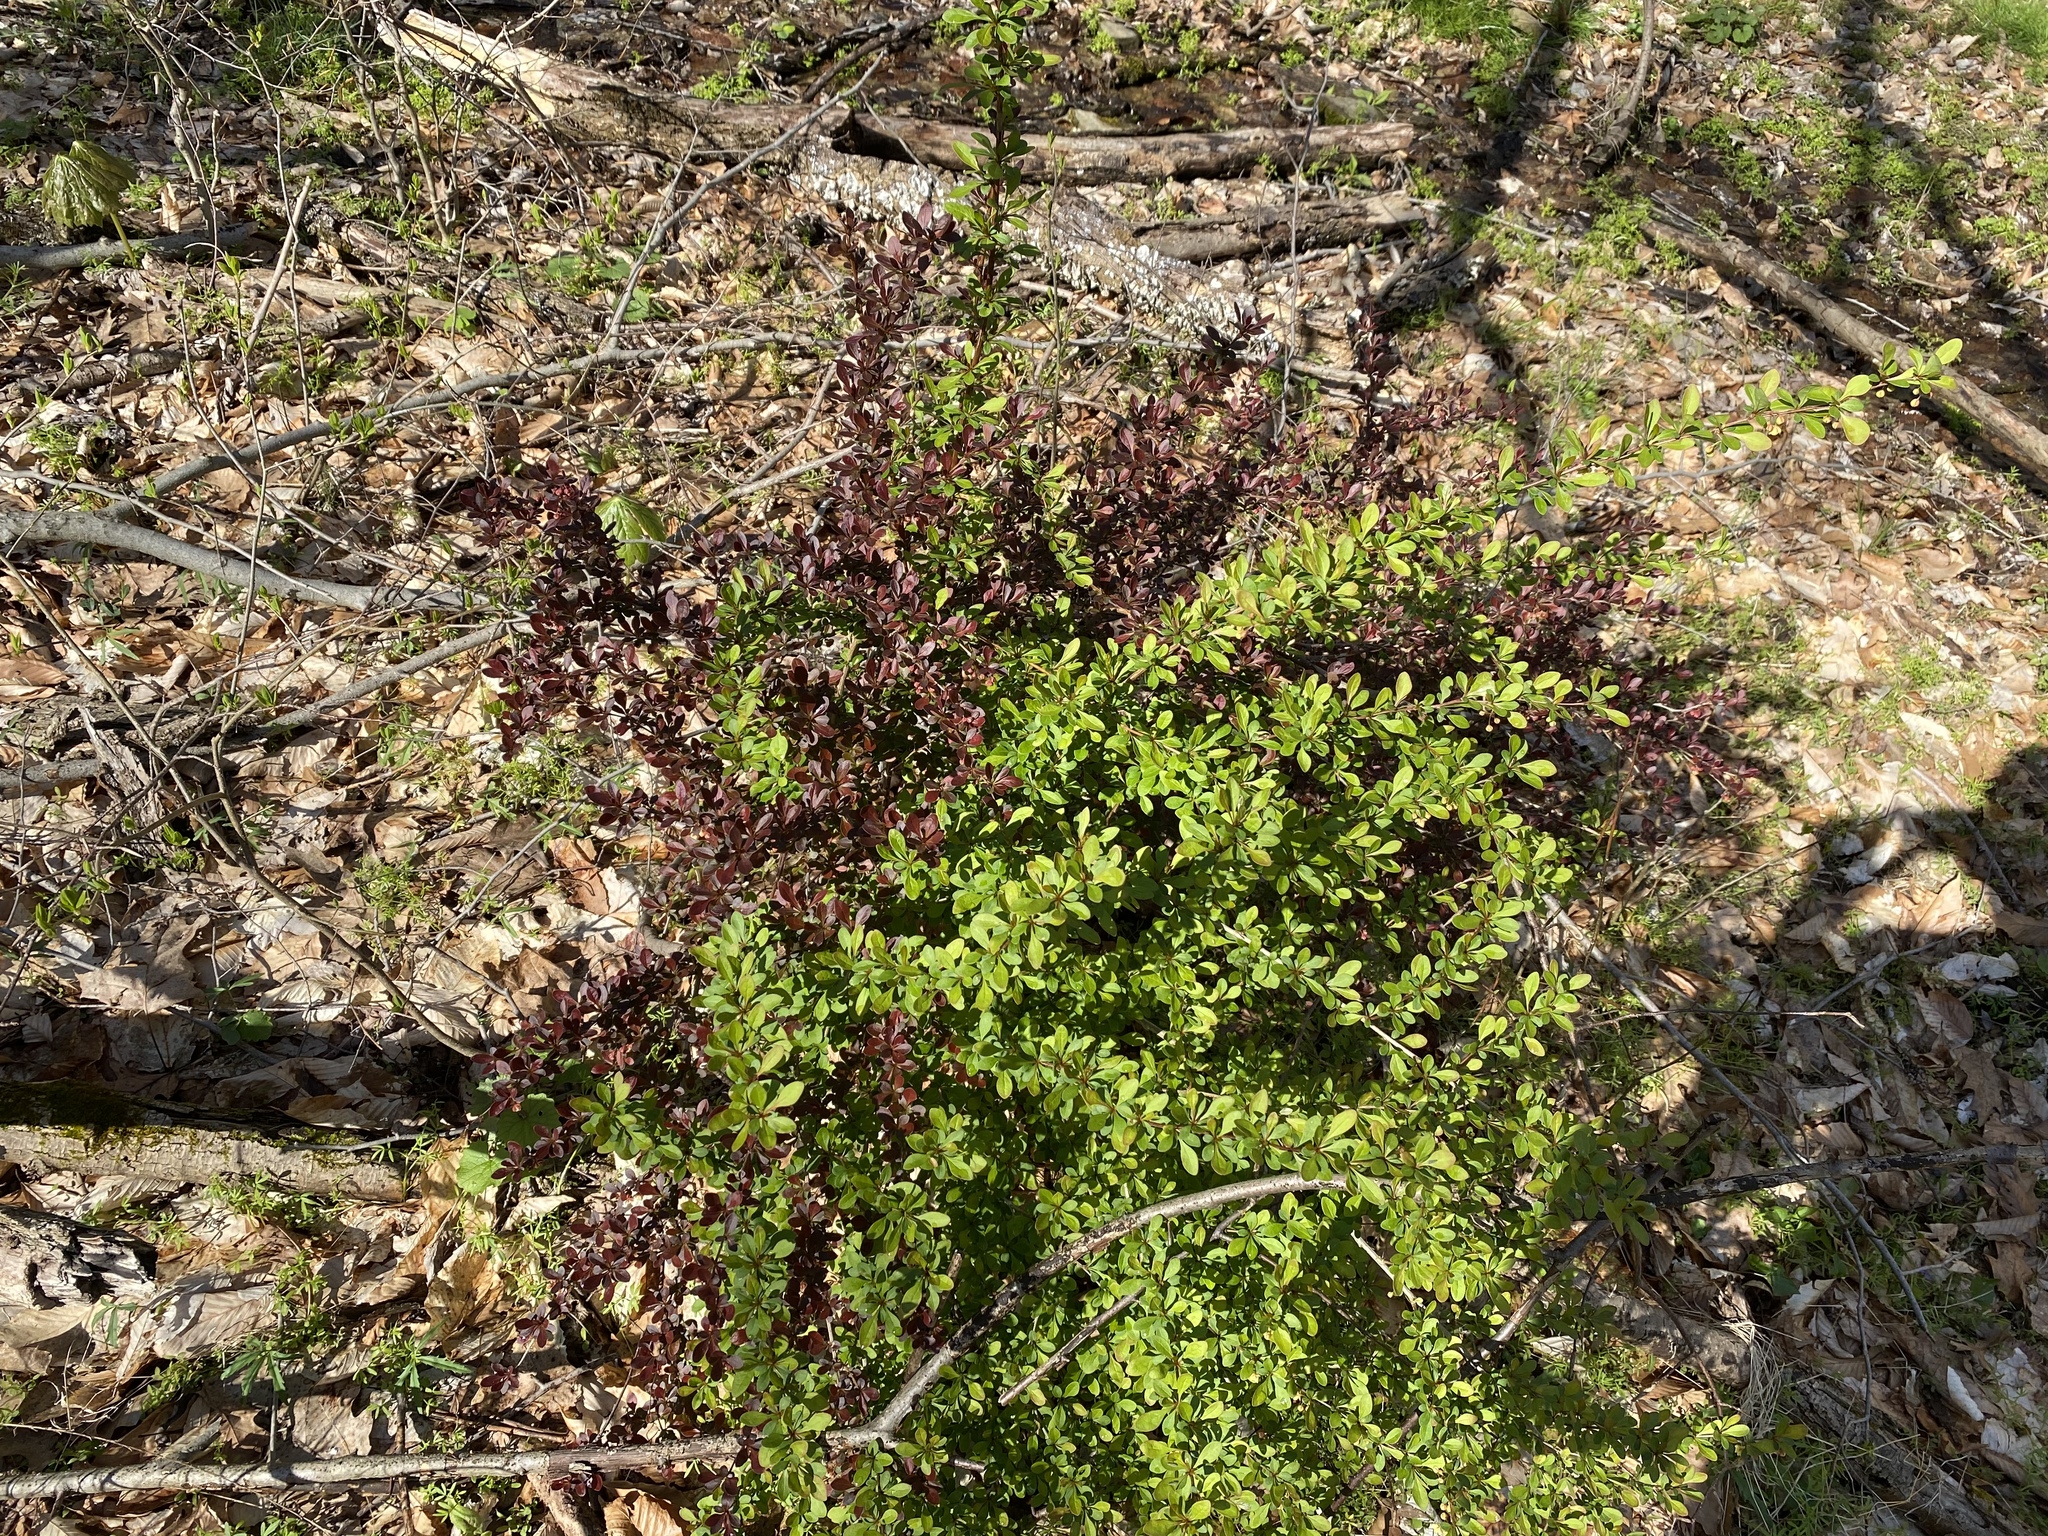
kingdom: Plantae
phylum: Tracheophyta
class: Magnoliopsida
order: Ranunculales
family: Berberidaceae
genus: Berberis
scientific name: Berberis thunbergii
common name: Japanese barberry
